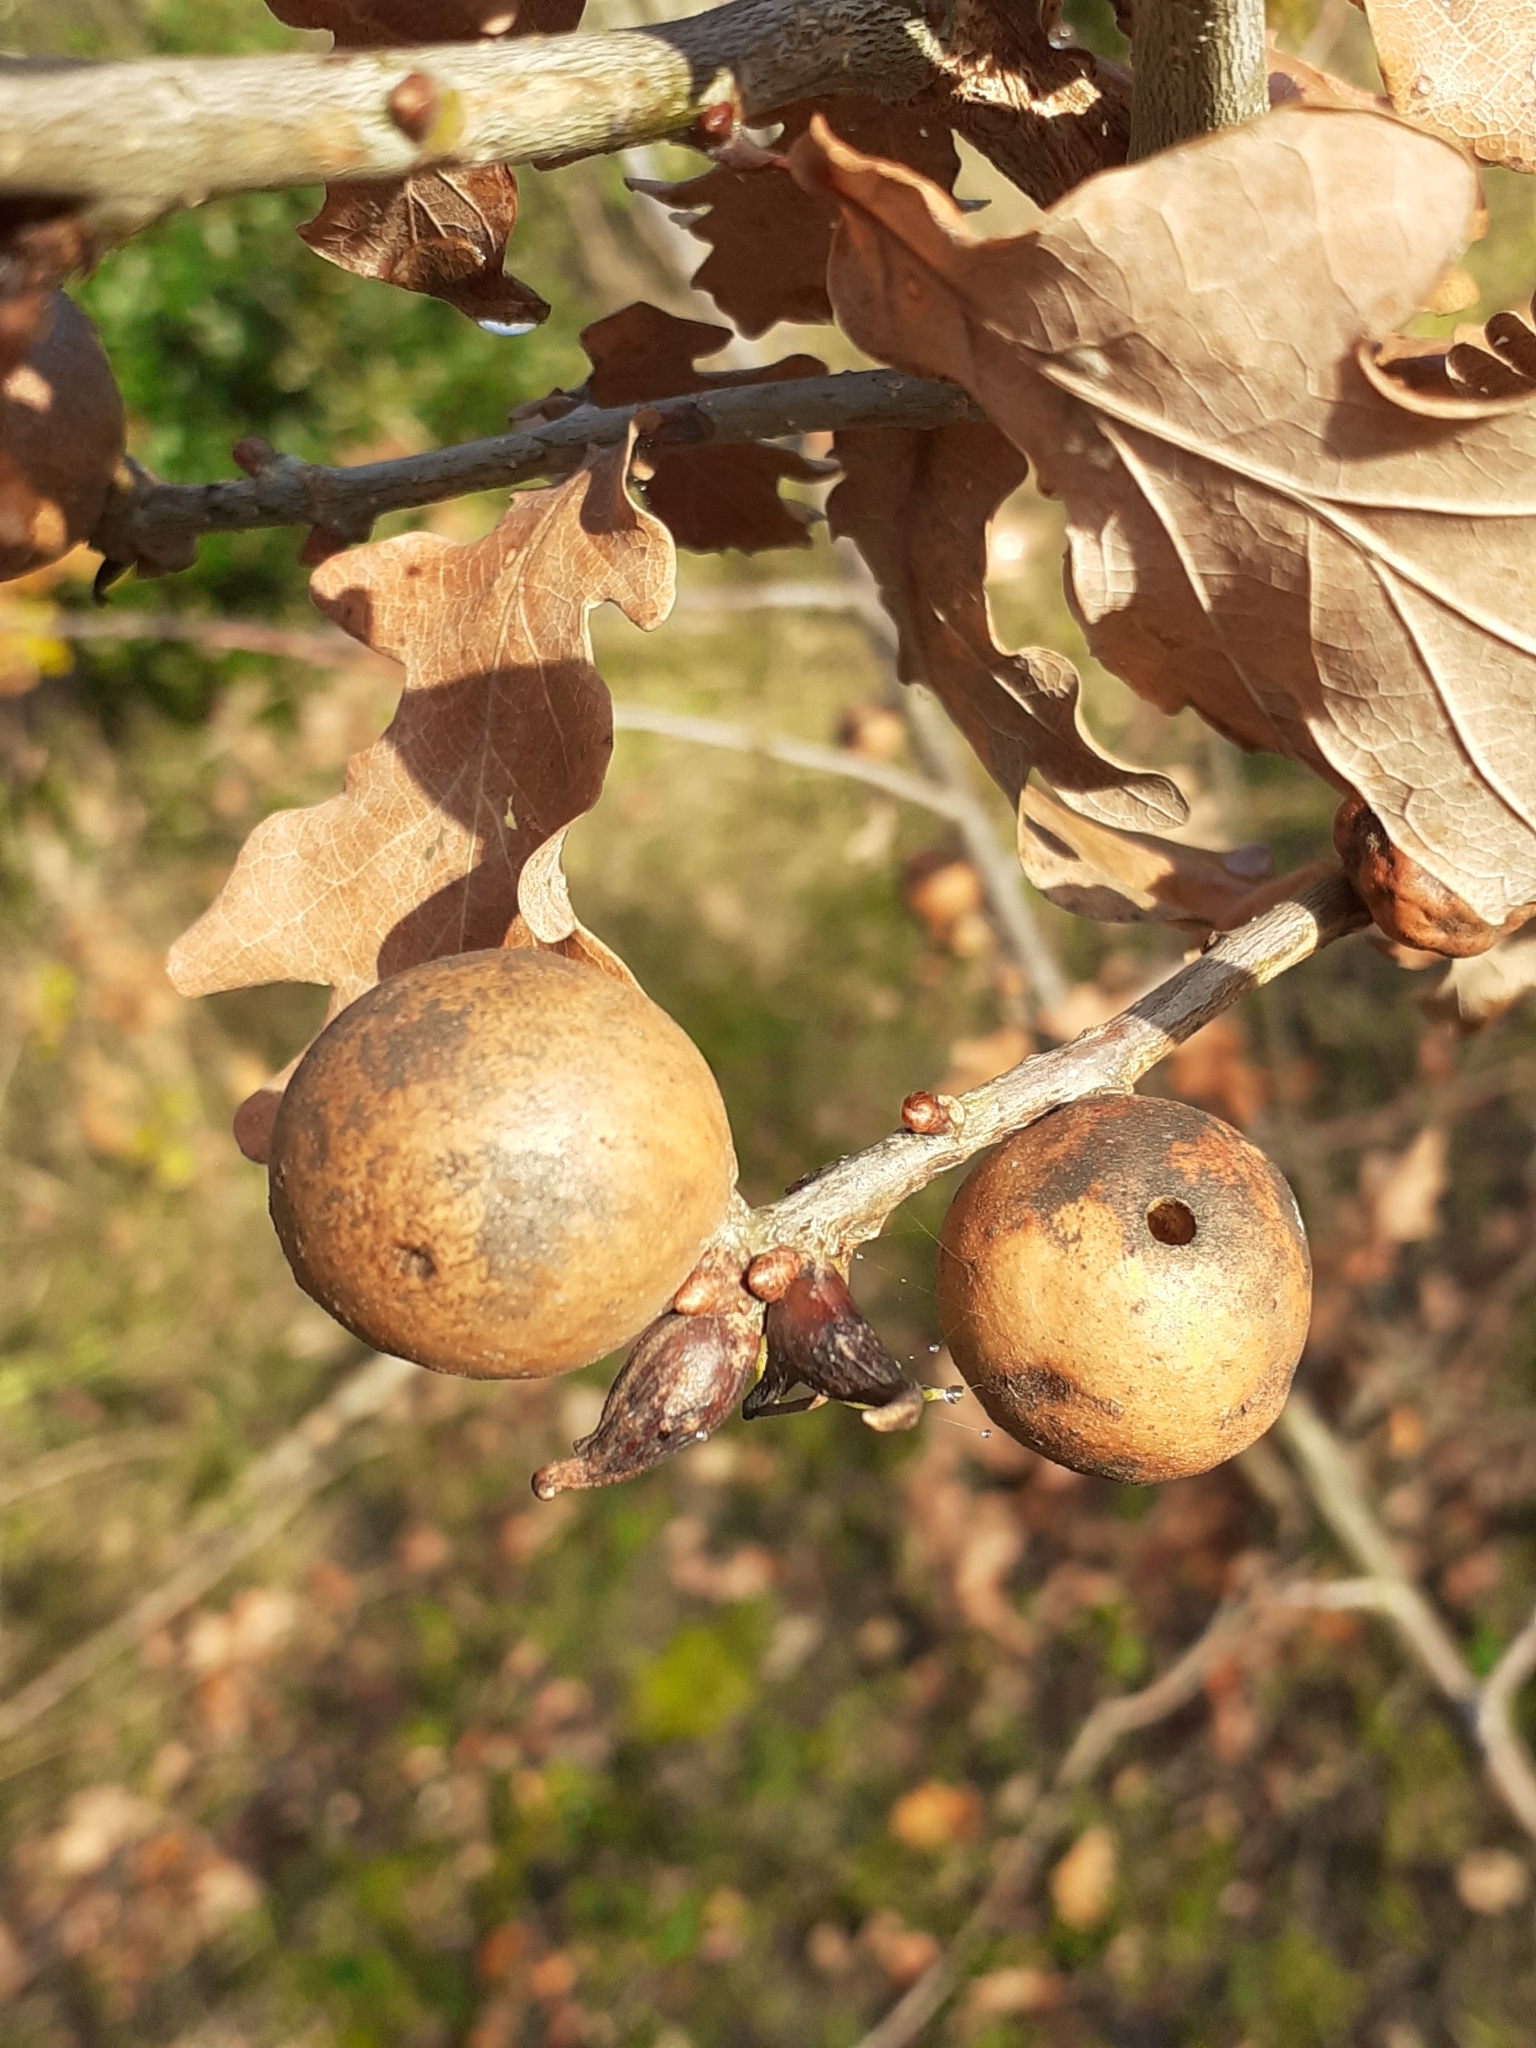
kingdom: Animalia
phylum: Arthropoda
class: Insecta
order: Hymenoptera
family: Cynipidae
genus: Andricus
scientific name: Andricus kollari
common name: Marble gall
